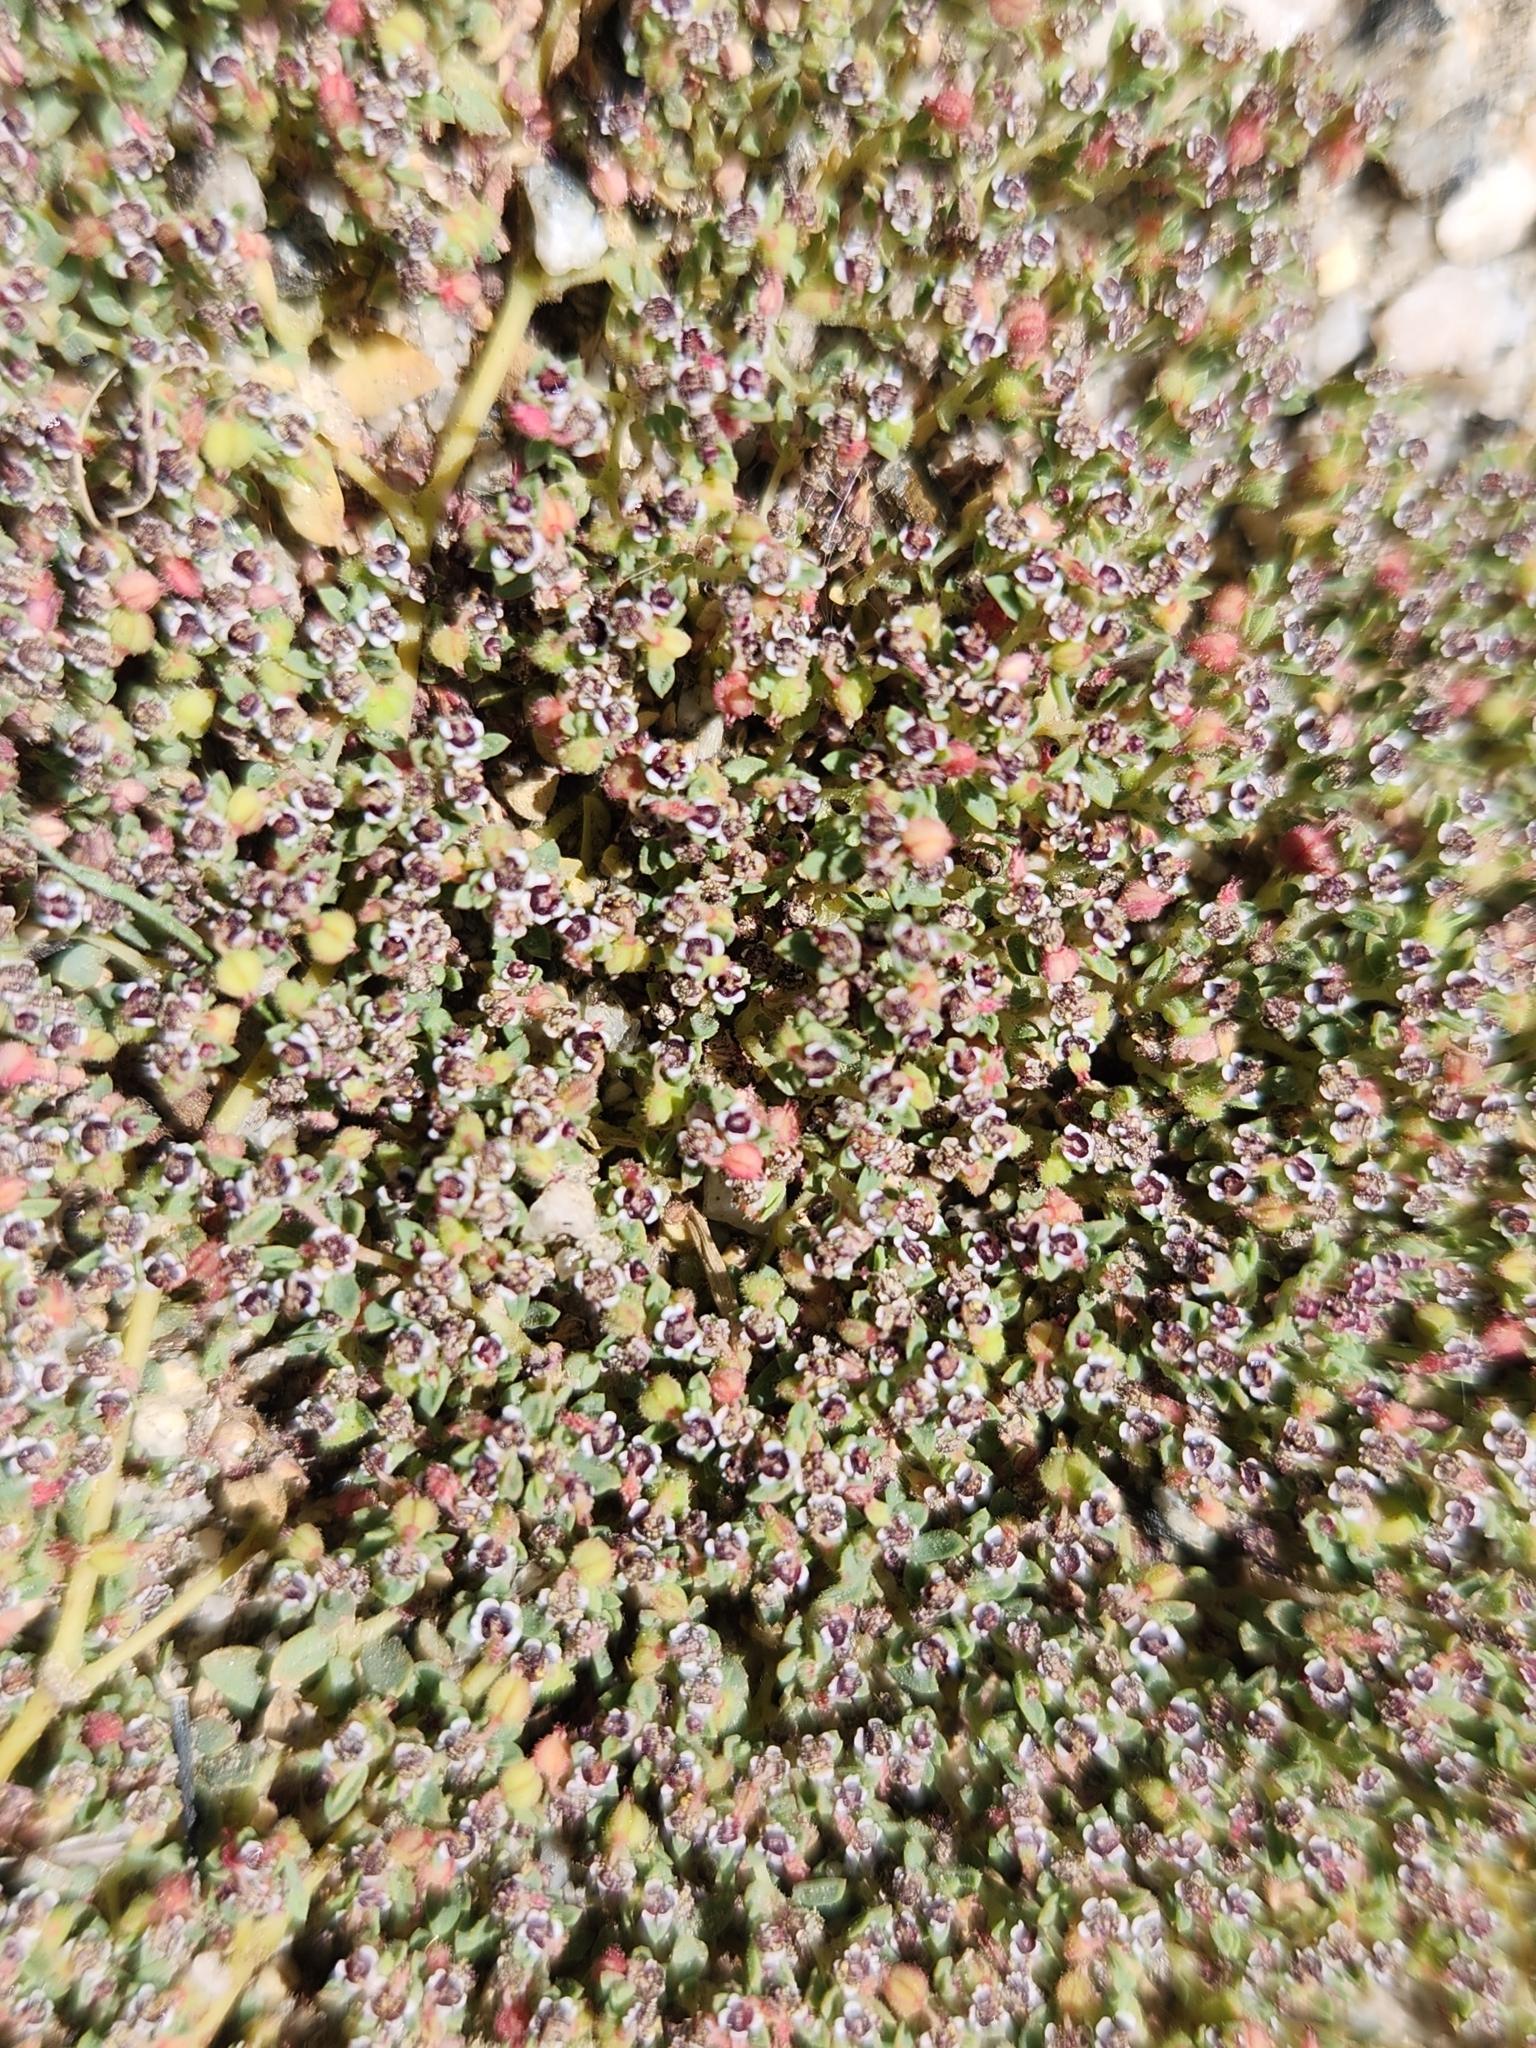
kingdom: Plantae
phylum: Tracheophyta
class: Magnoliopsida
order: Malpighiales
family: Euphorbiaceae
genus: Euphorbia
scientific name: Euphorbia polycarpa
